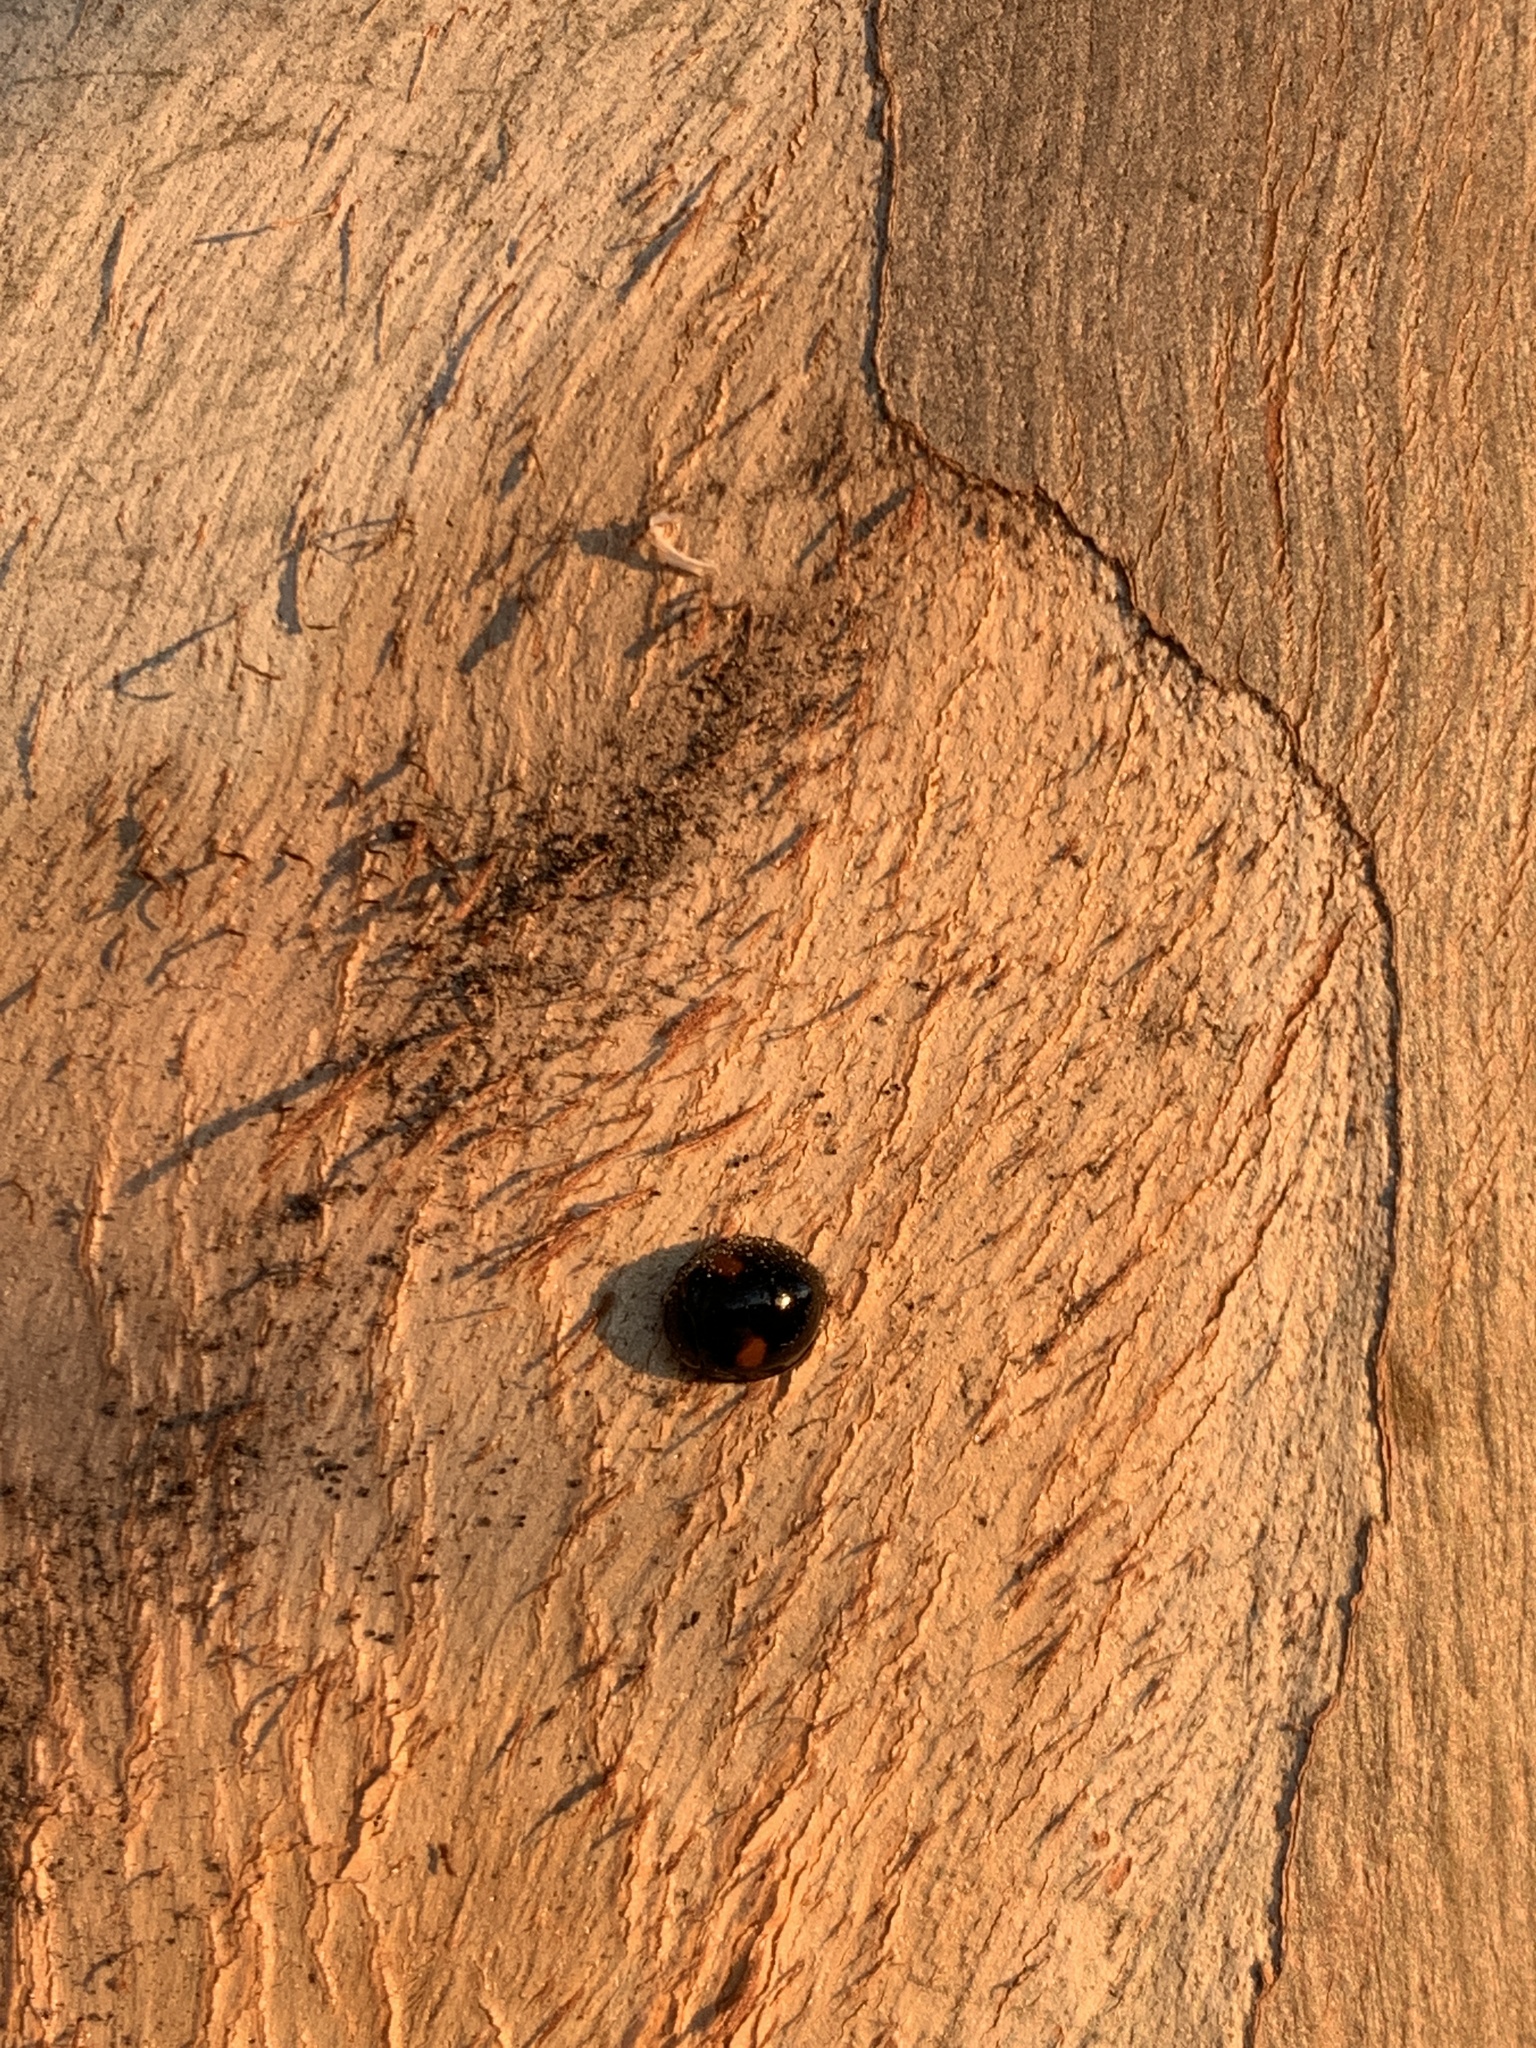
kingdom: Animalia
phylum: Arthropoda
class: Insecta
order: Coleoptera
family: Coccinellidae
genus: Olla
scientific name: Olla v-nigrum
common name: Ashy gray lady beetle
